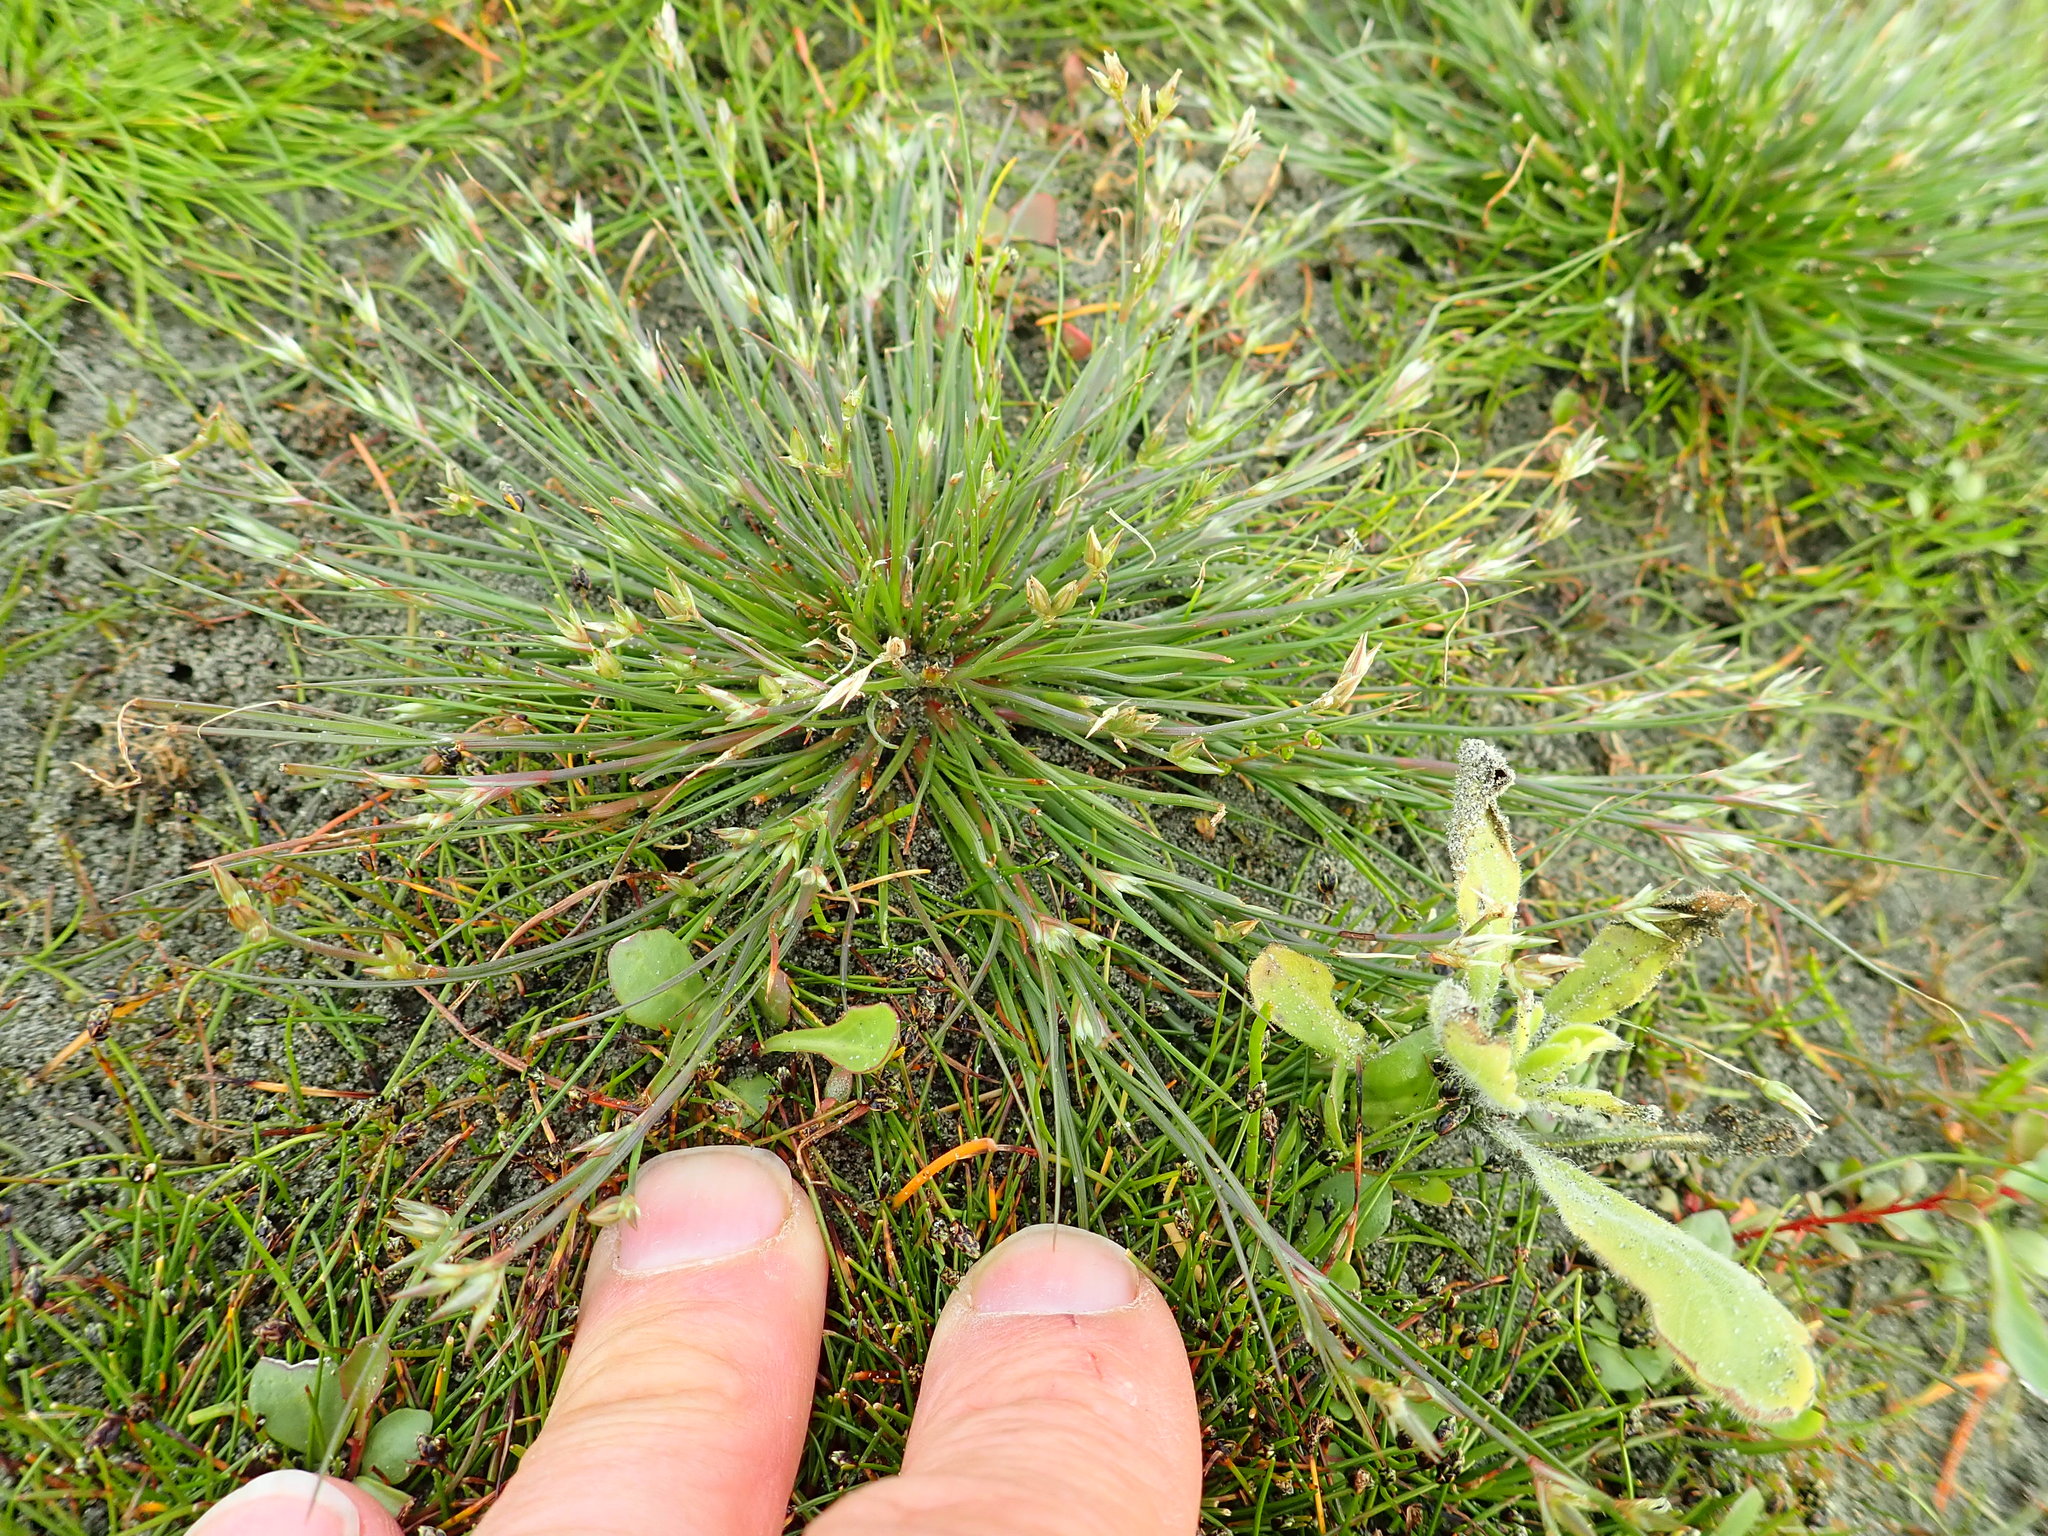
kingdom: Plantae
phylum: Tracheophyta
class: Liliopsida
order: Poales
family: Juncaceae
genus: Juncus
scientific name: Juncus bufonius
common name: Toad rush
